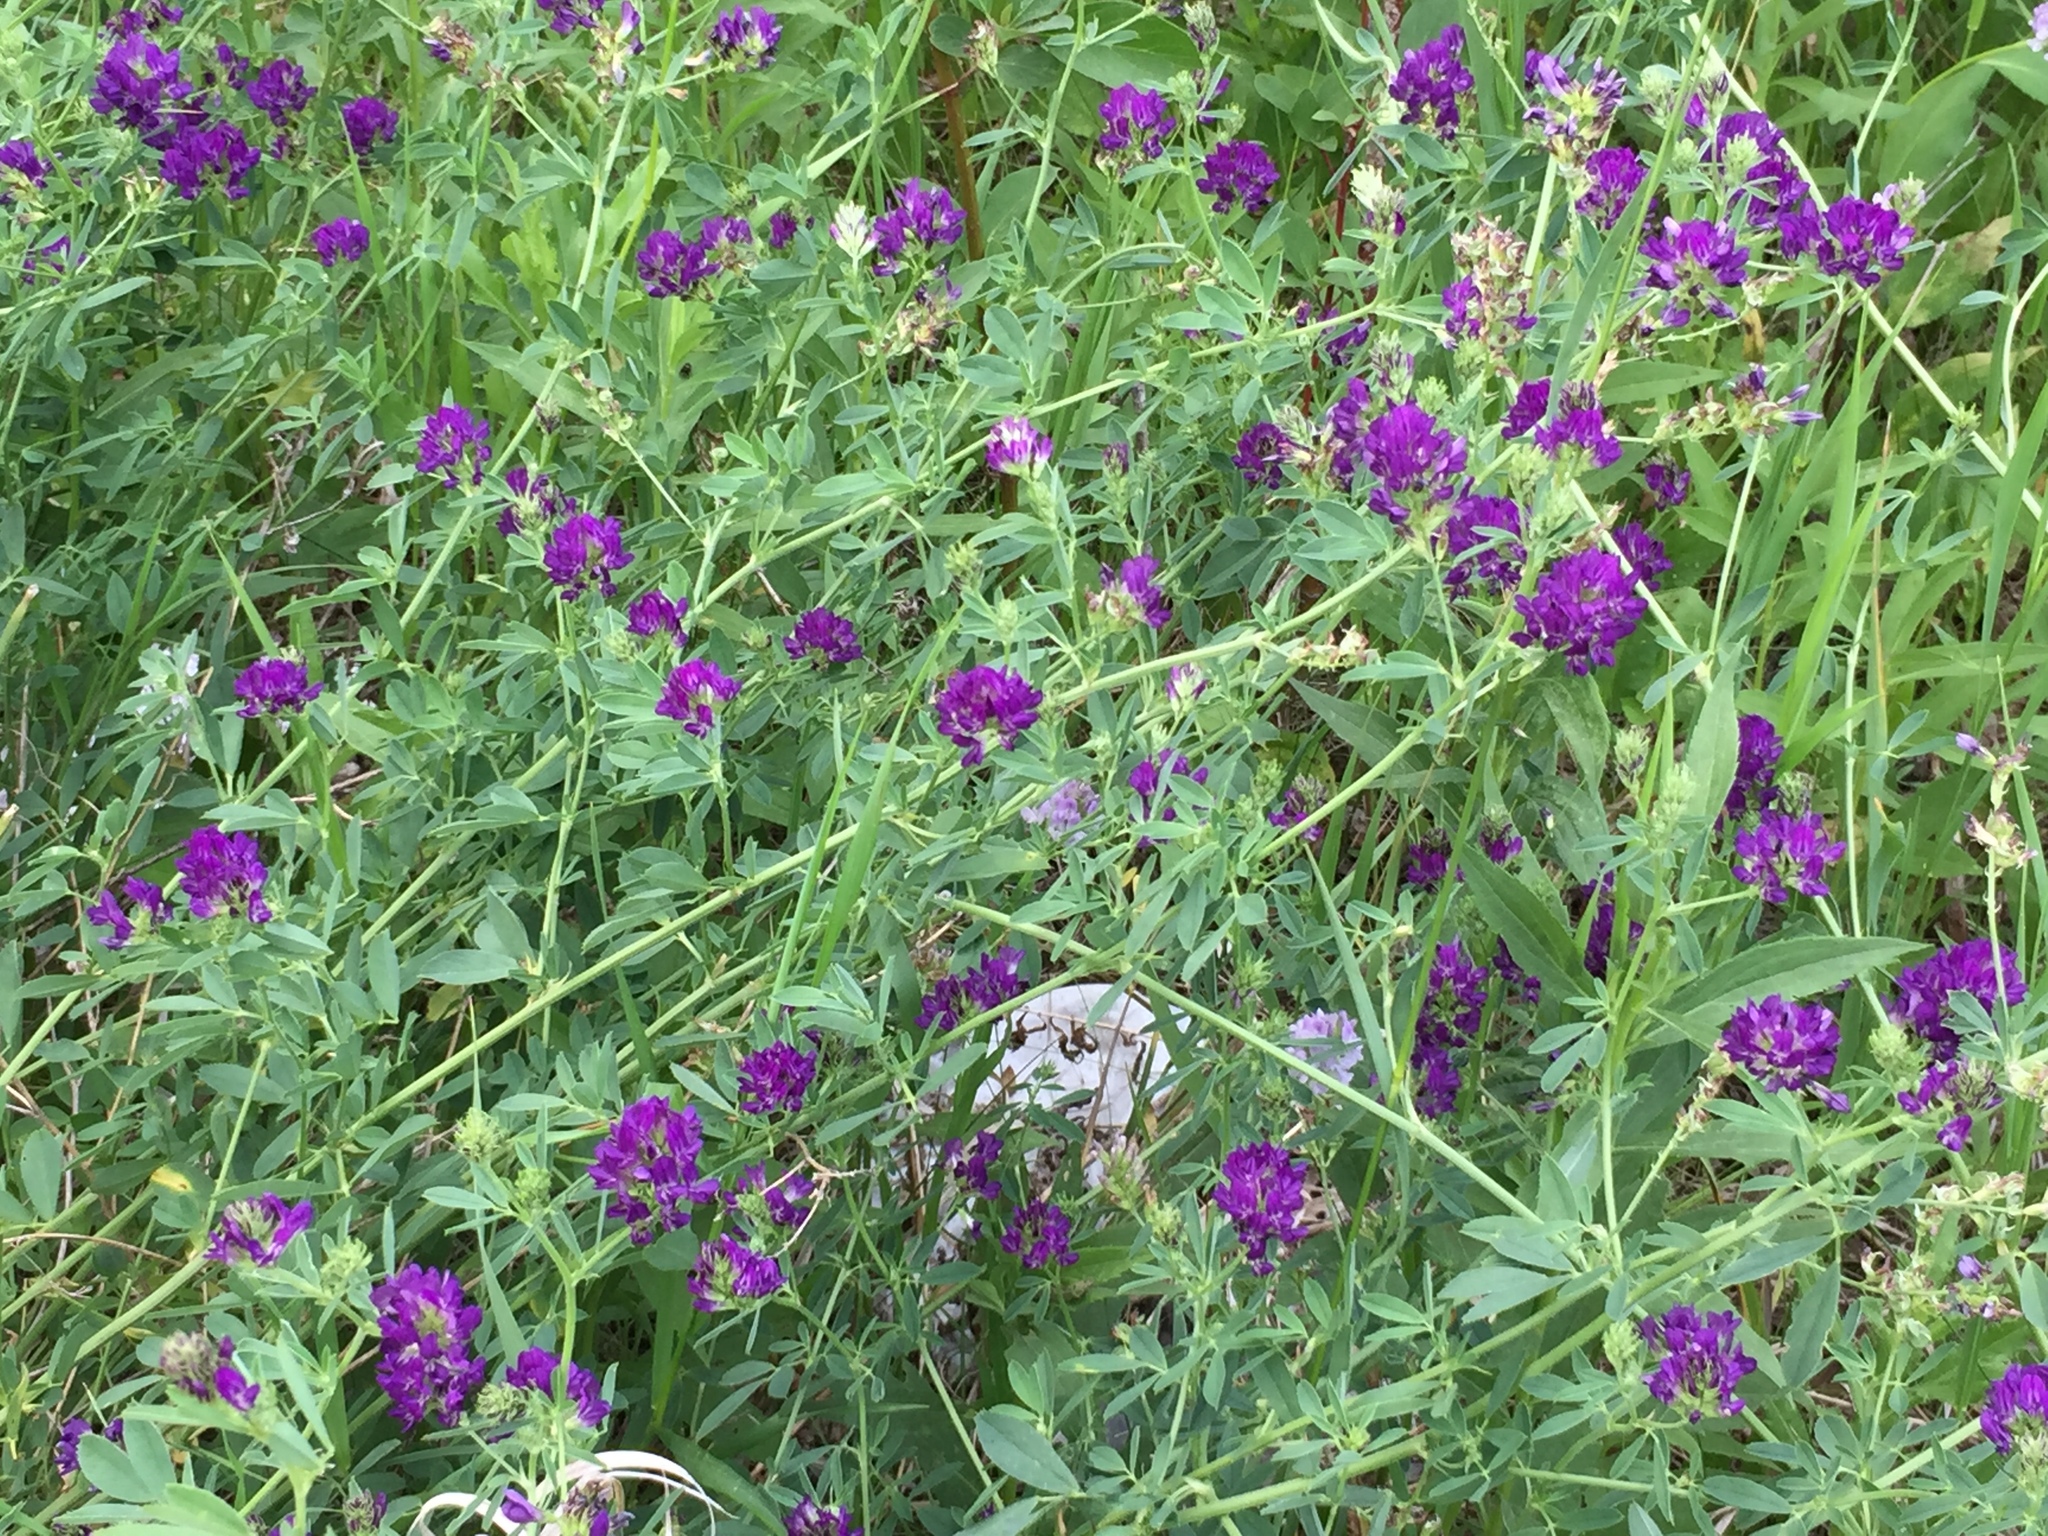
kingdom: Plantae
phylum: Tracheophyta
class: Magnoliopsida
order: Fabales
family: Fabaceae
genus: Medicago
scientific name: Medicago sativa
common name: Alfalfa
